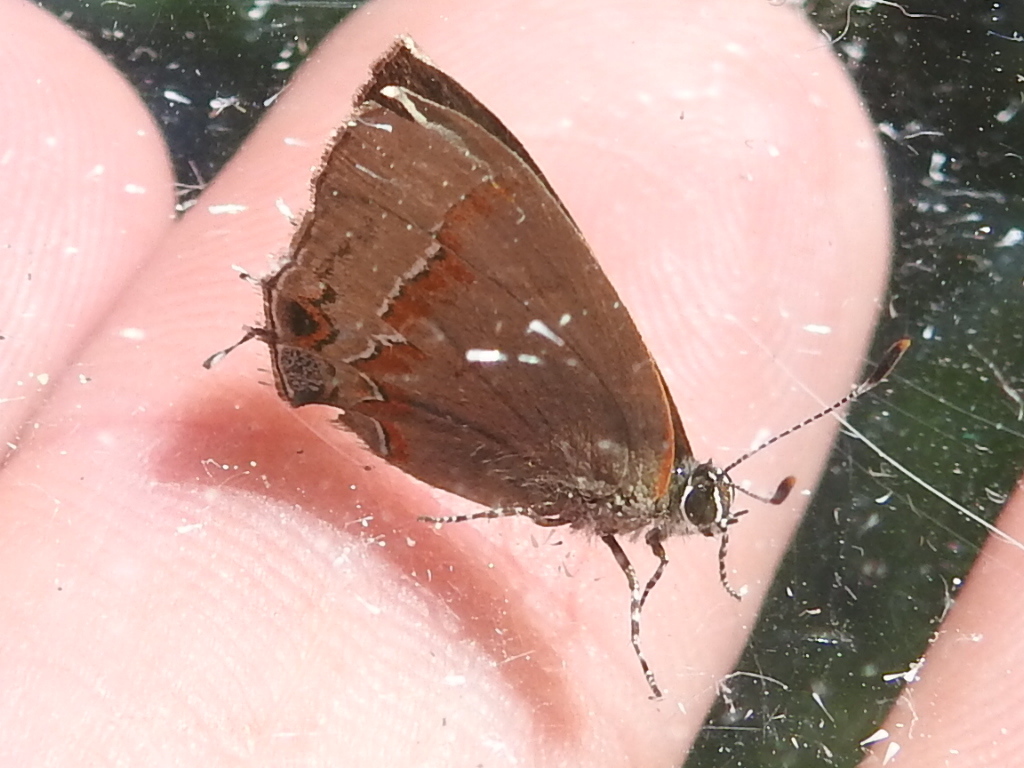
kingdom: Animalia
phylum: Arthropoda
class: Insecta
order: Lepidoptera
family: Lycaenidae
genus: Calycopis
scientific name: Calycopis cecrops
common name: Red-banded hairstreak
